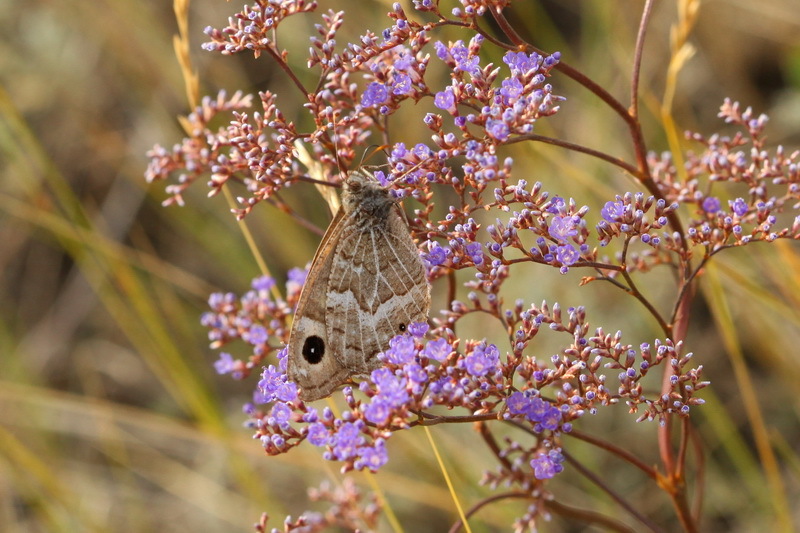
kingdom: Animalia
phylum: Arthropoda
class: Insecta
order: Lepidoptera
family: Nymphalidae
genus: Hipparchia
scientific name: Hipparchia autonoe
